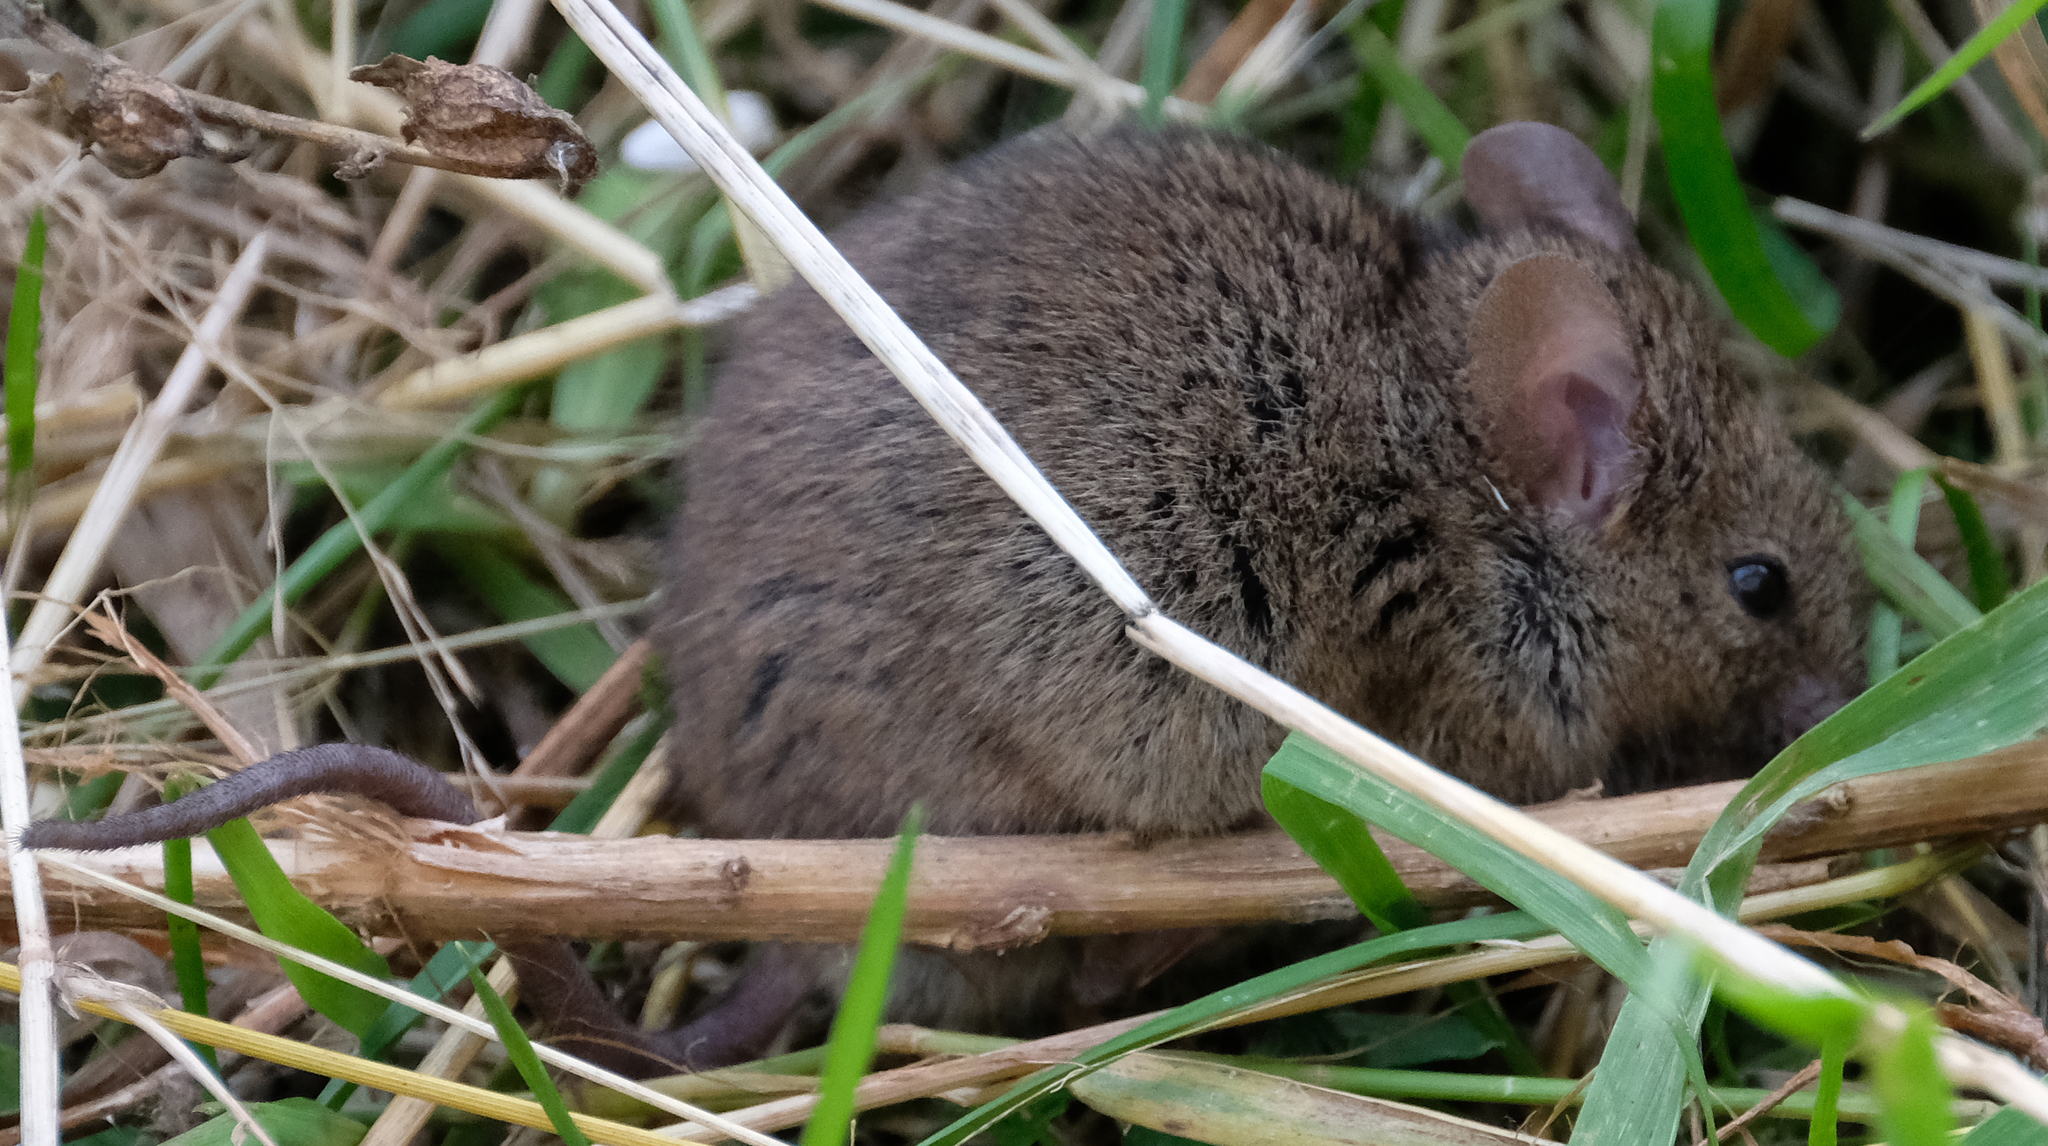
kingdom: Animalia
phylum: Chordata
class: Mammalia
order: Rodentia
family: Muridae
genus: Mus
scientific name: Mus musculus
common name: House mouse
